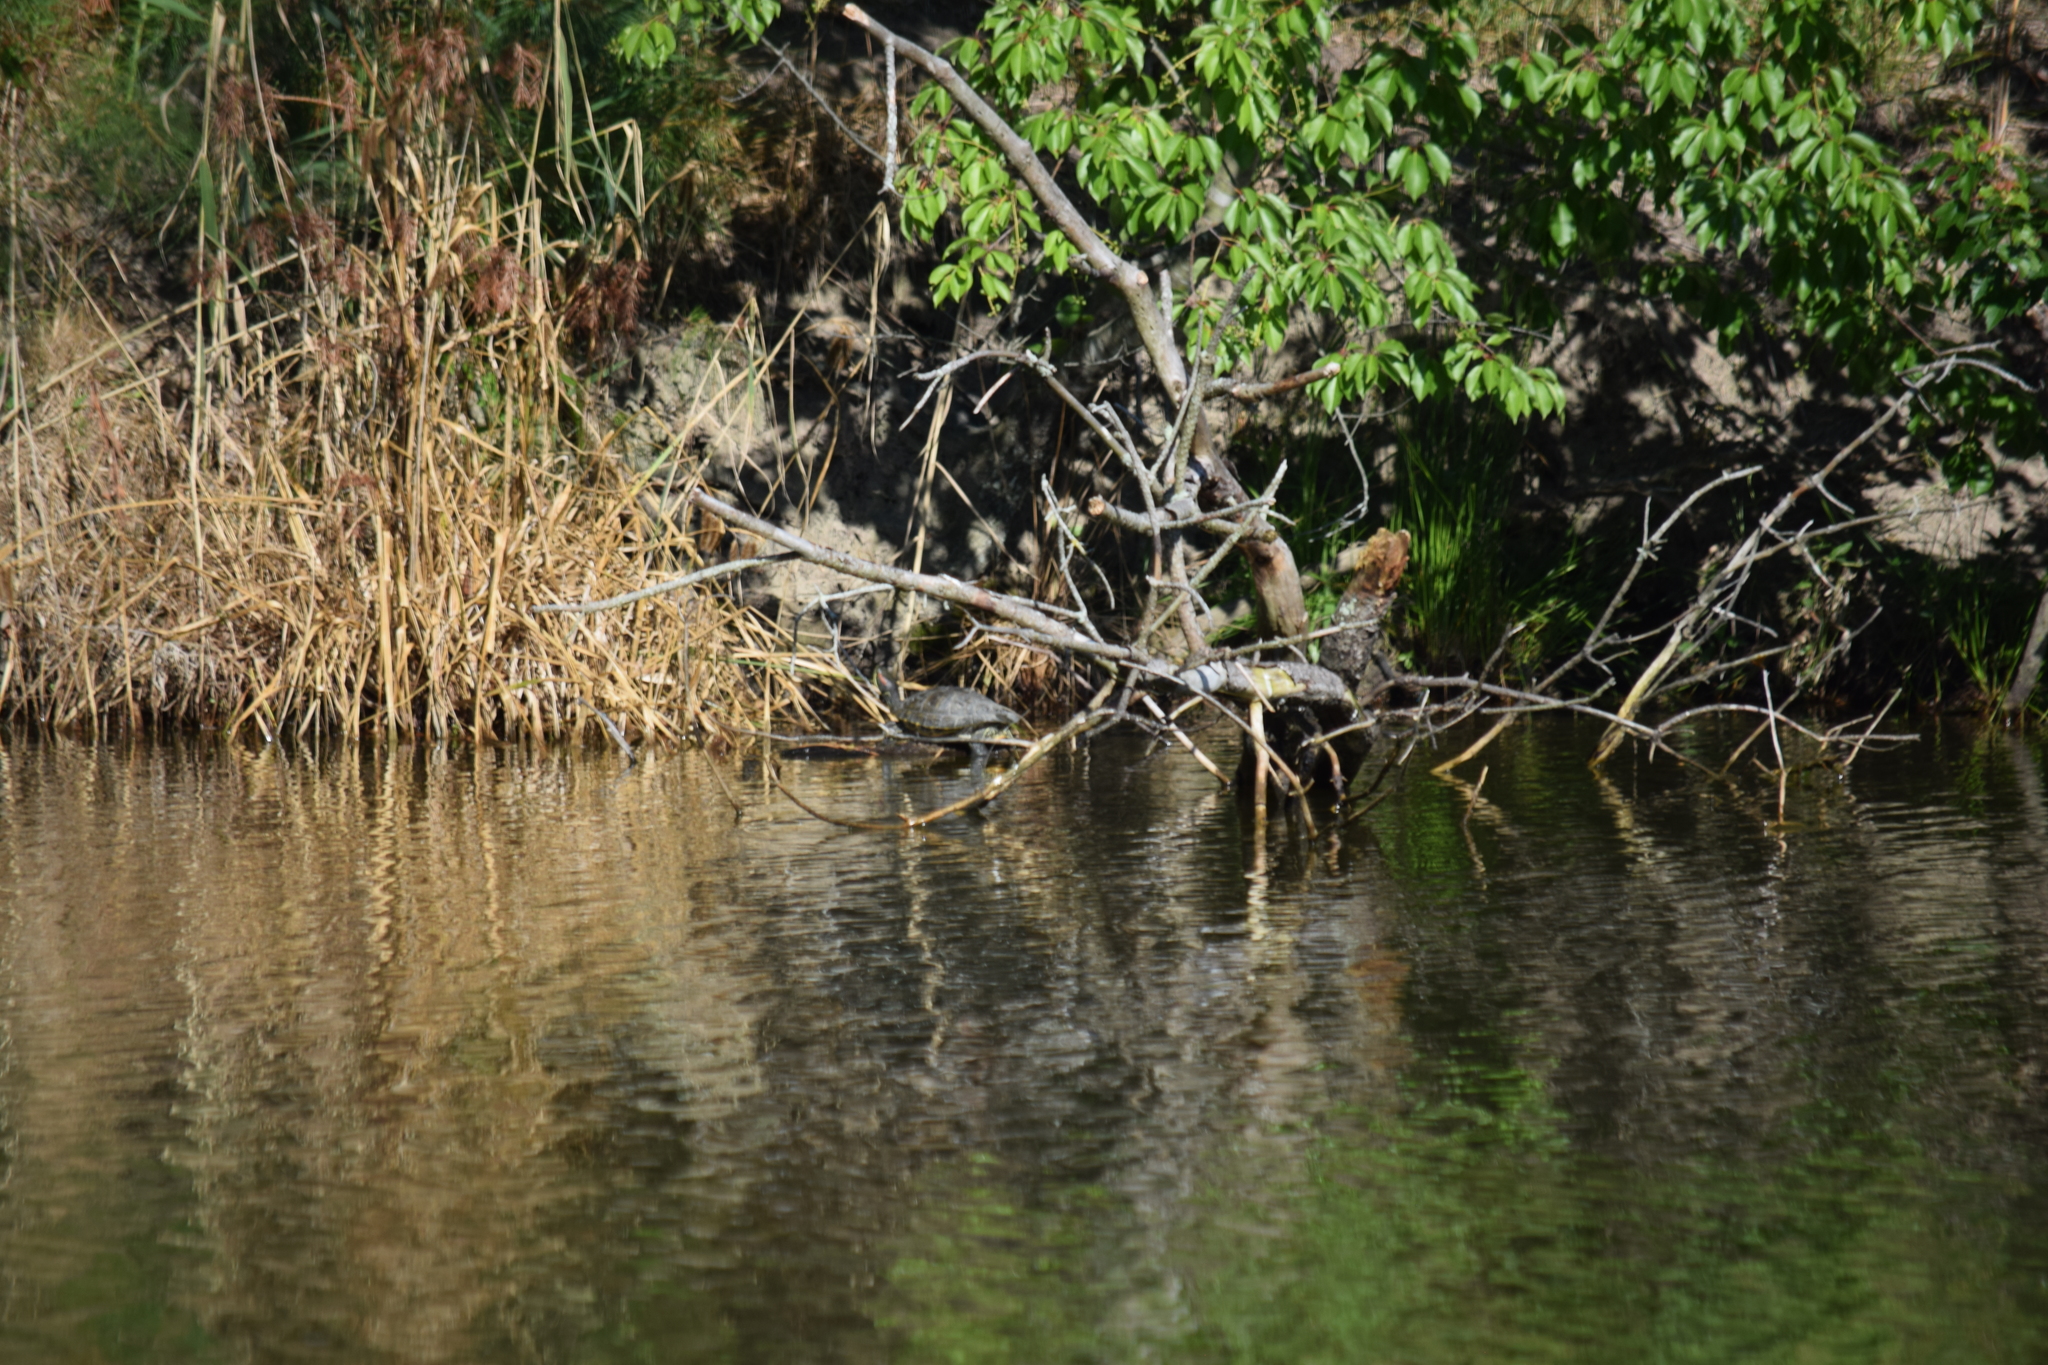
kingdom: Animalia
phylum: Chordata
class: Testudines
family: Emydidae
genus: Trachemys
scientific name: Trachemys scripta
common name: Slider
